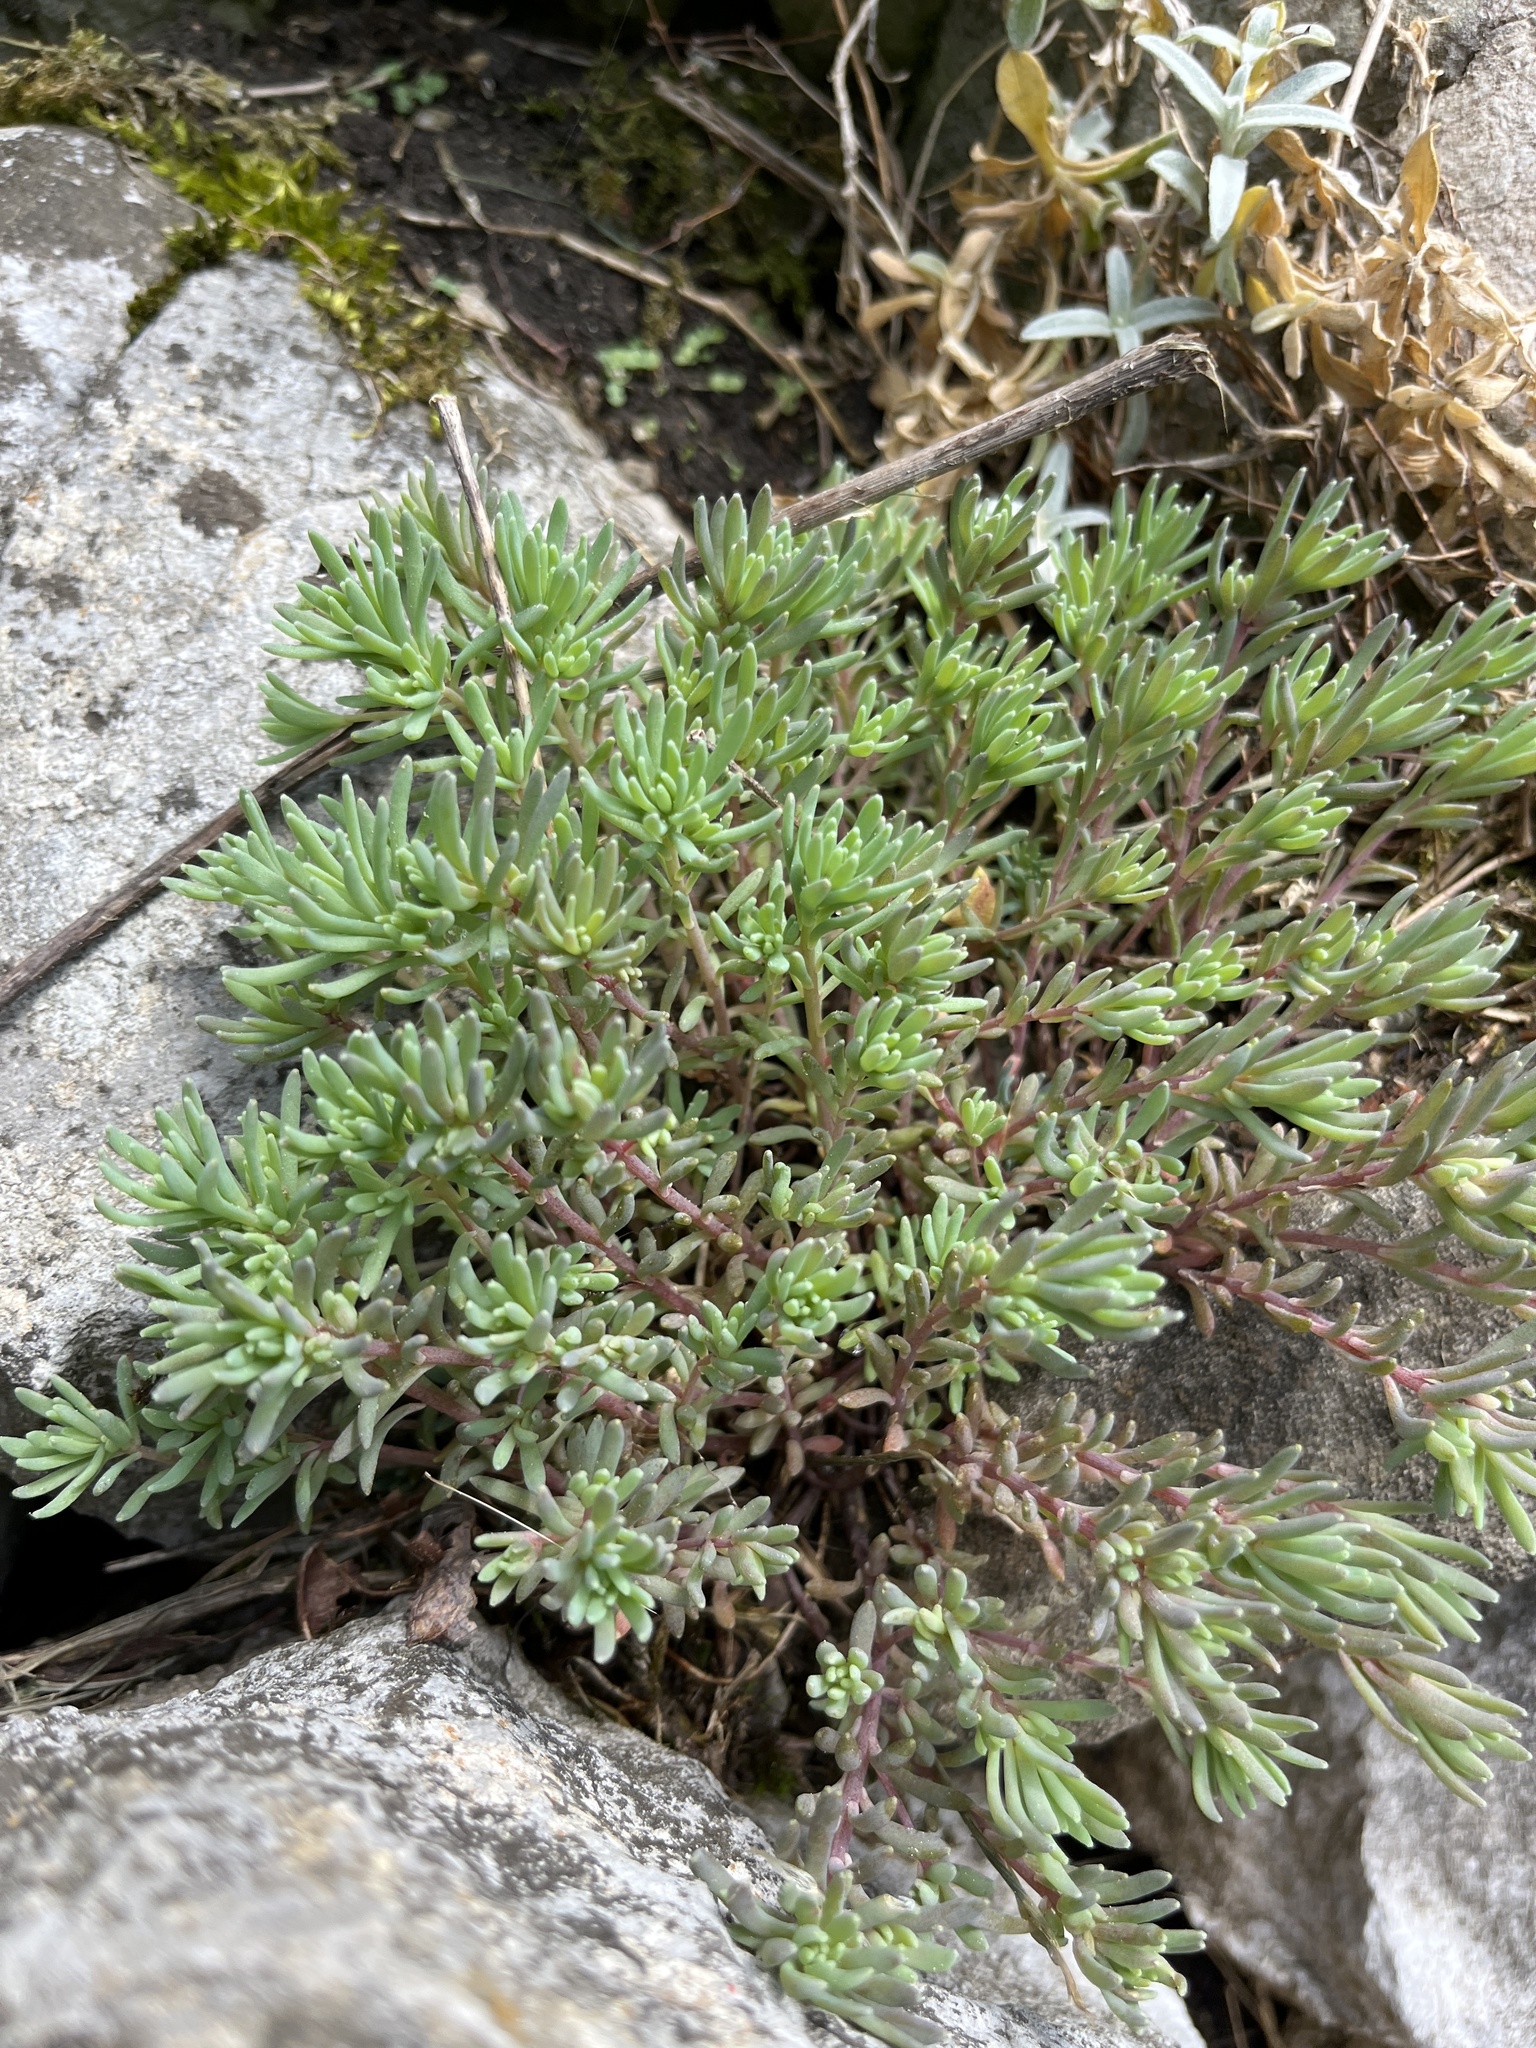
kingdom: Plantae
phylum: Tracheophyta
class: Magnoliopsida
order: Saxifragales
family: Crassulaceae
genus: Sedum
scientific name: Sedum hispanicum
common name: Spanish stonecrop
